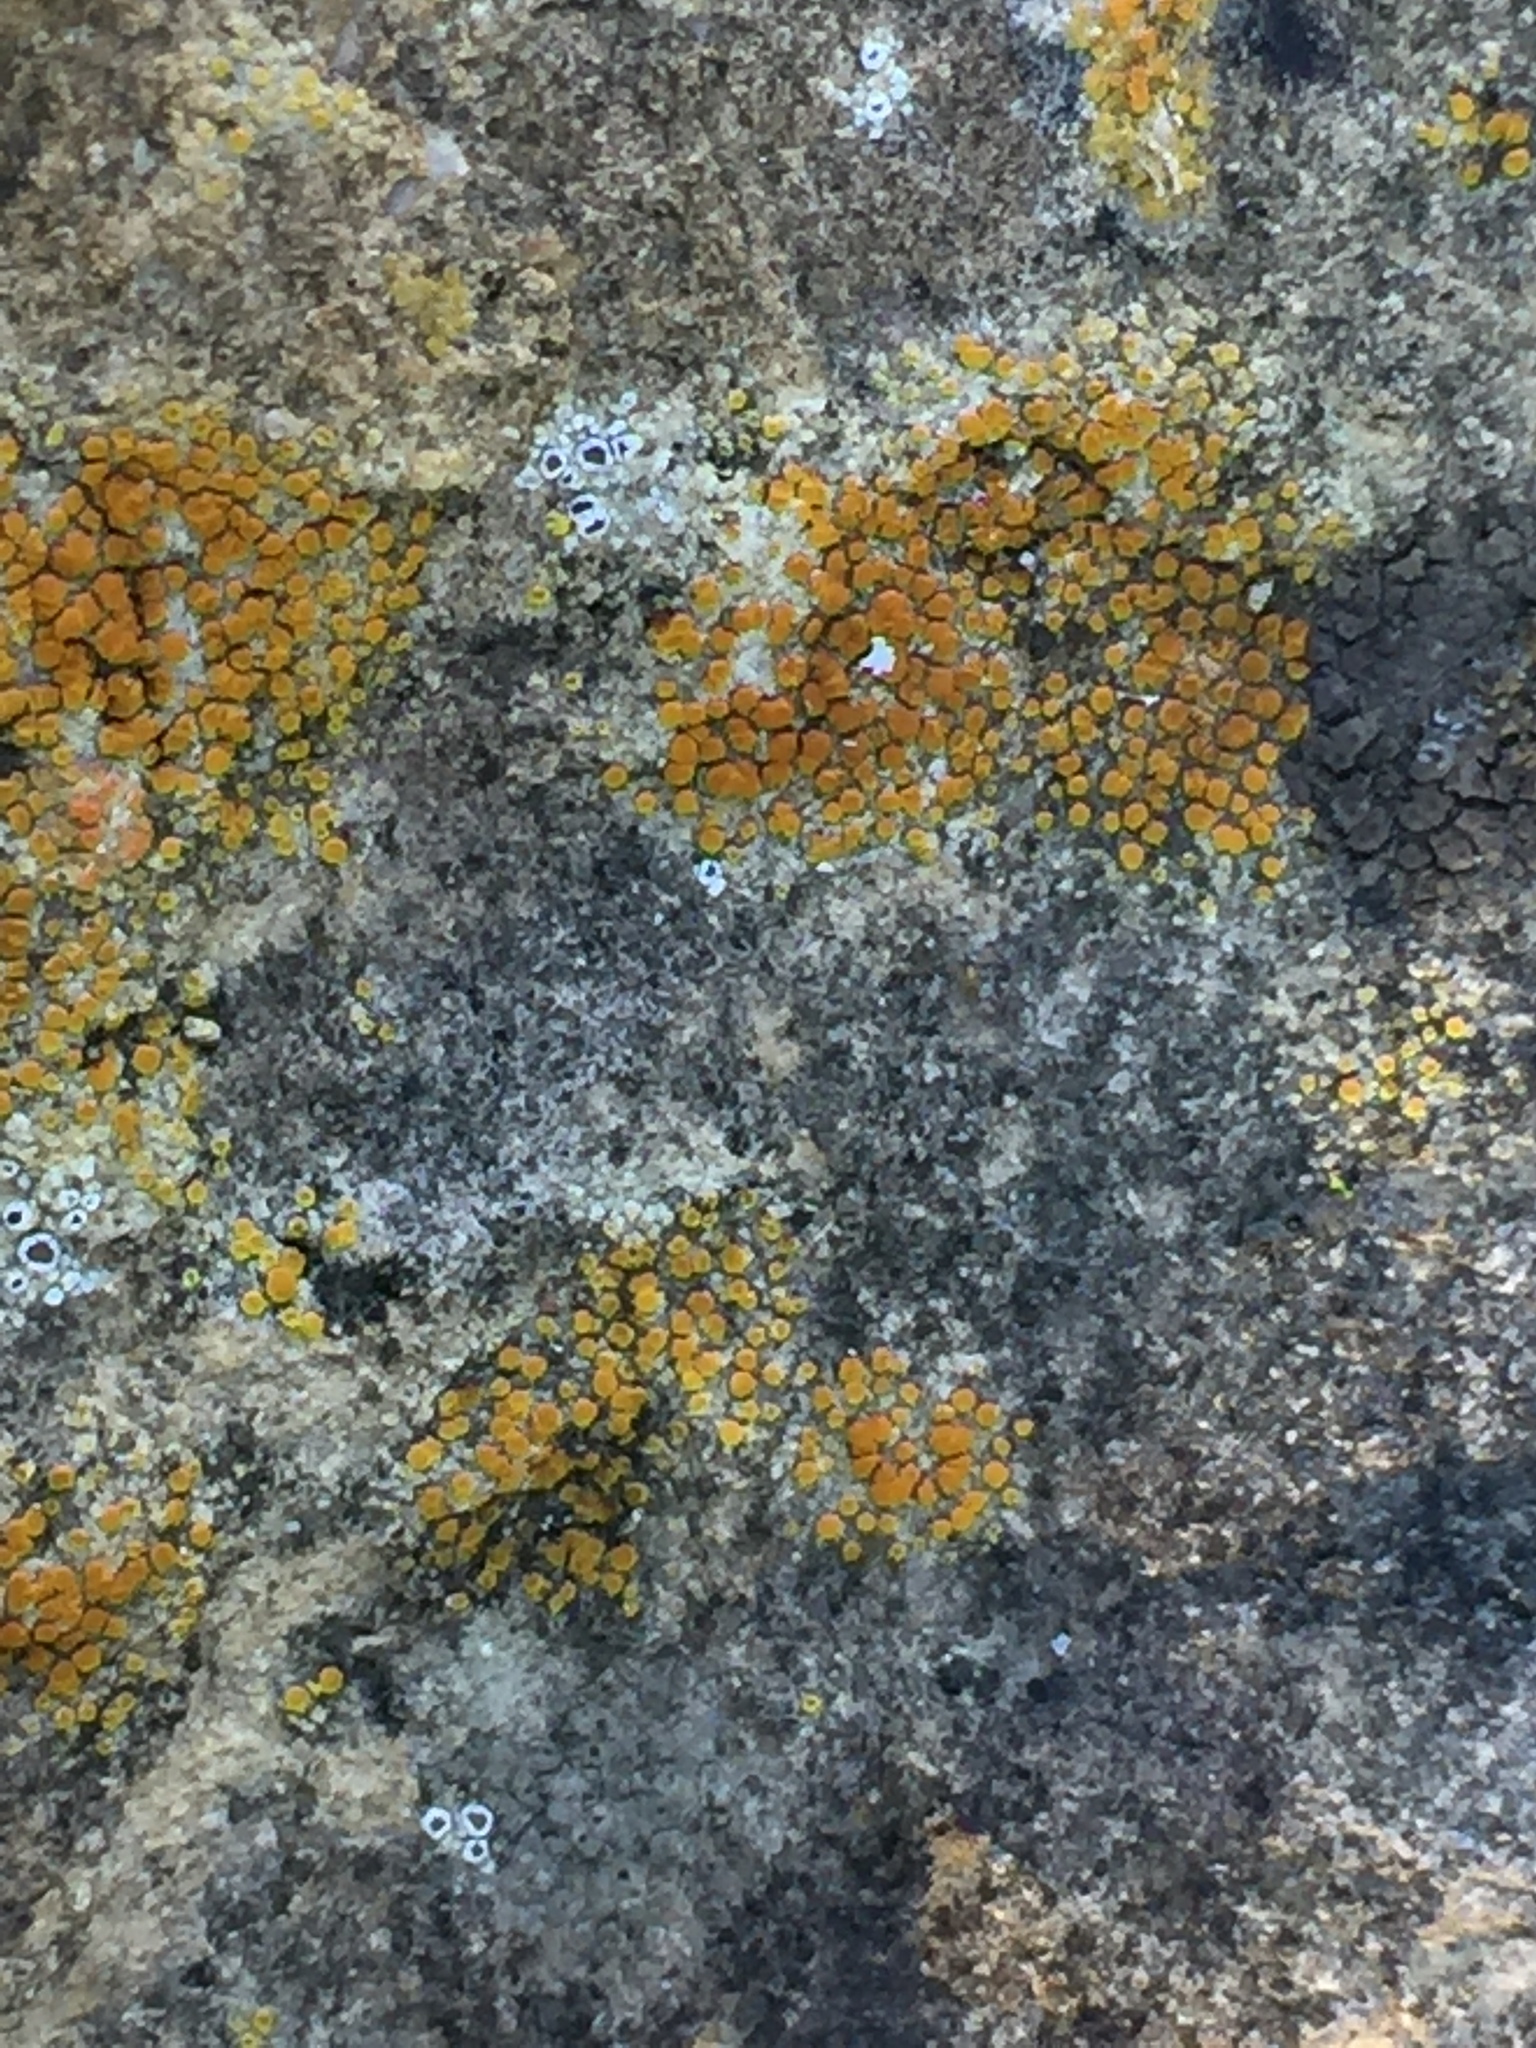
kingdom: Fungi
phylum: Ascomycota
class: Lecanoromycetes
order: Teloschistales
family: Teloschistaceae
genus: Xanthocarpia
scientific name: Xanthocarpia feracissima
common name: Sidewalk firedot
